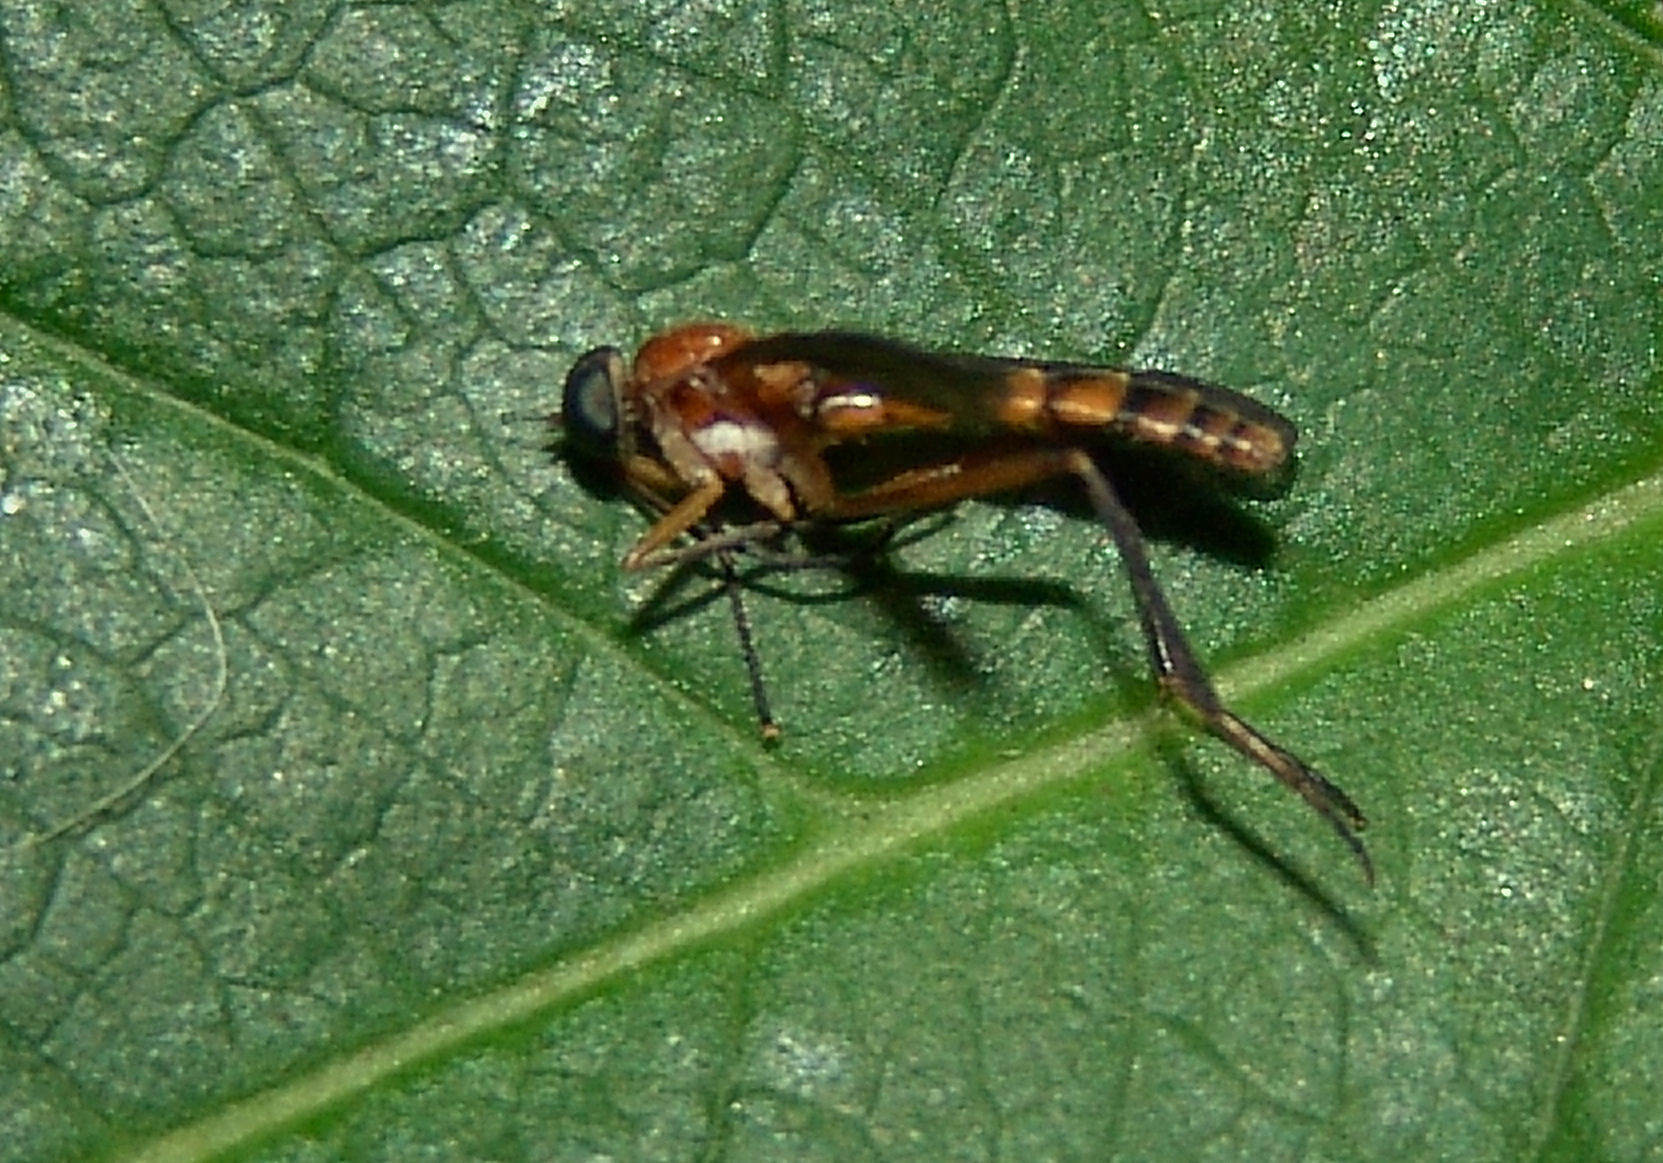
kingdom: Animalia
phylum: Arthropoda
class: Insecta
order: Diptera
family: Xylophagidae
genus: Dialysis
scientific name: Dialysis rufithorax
